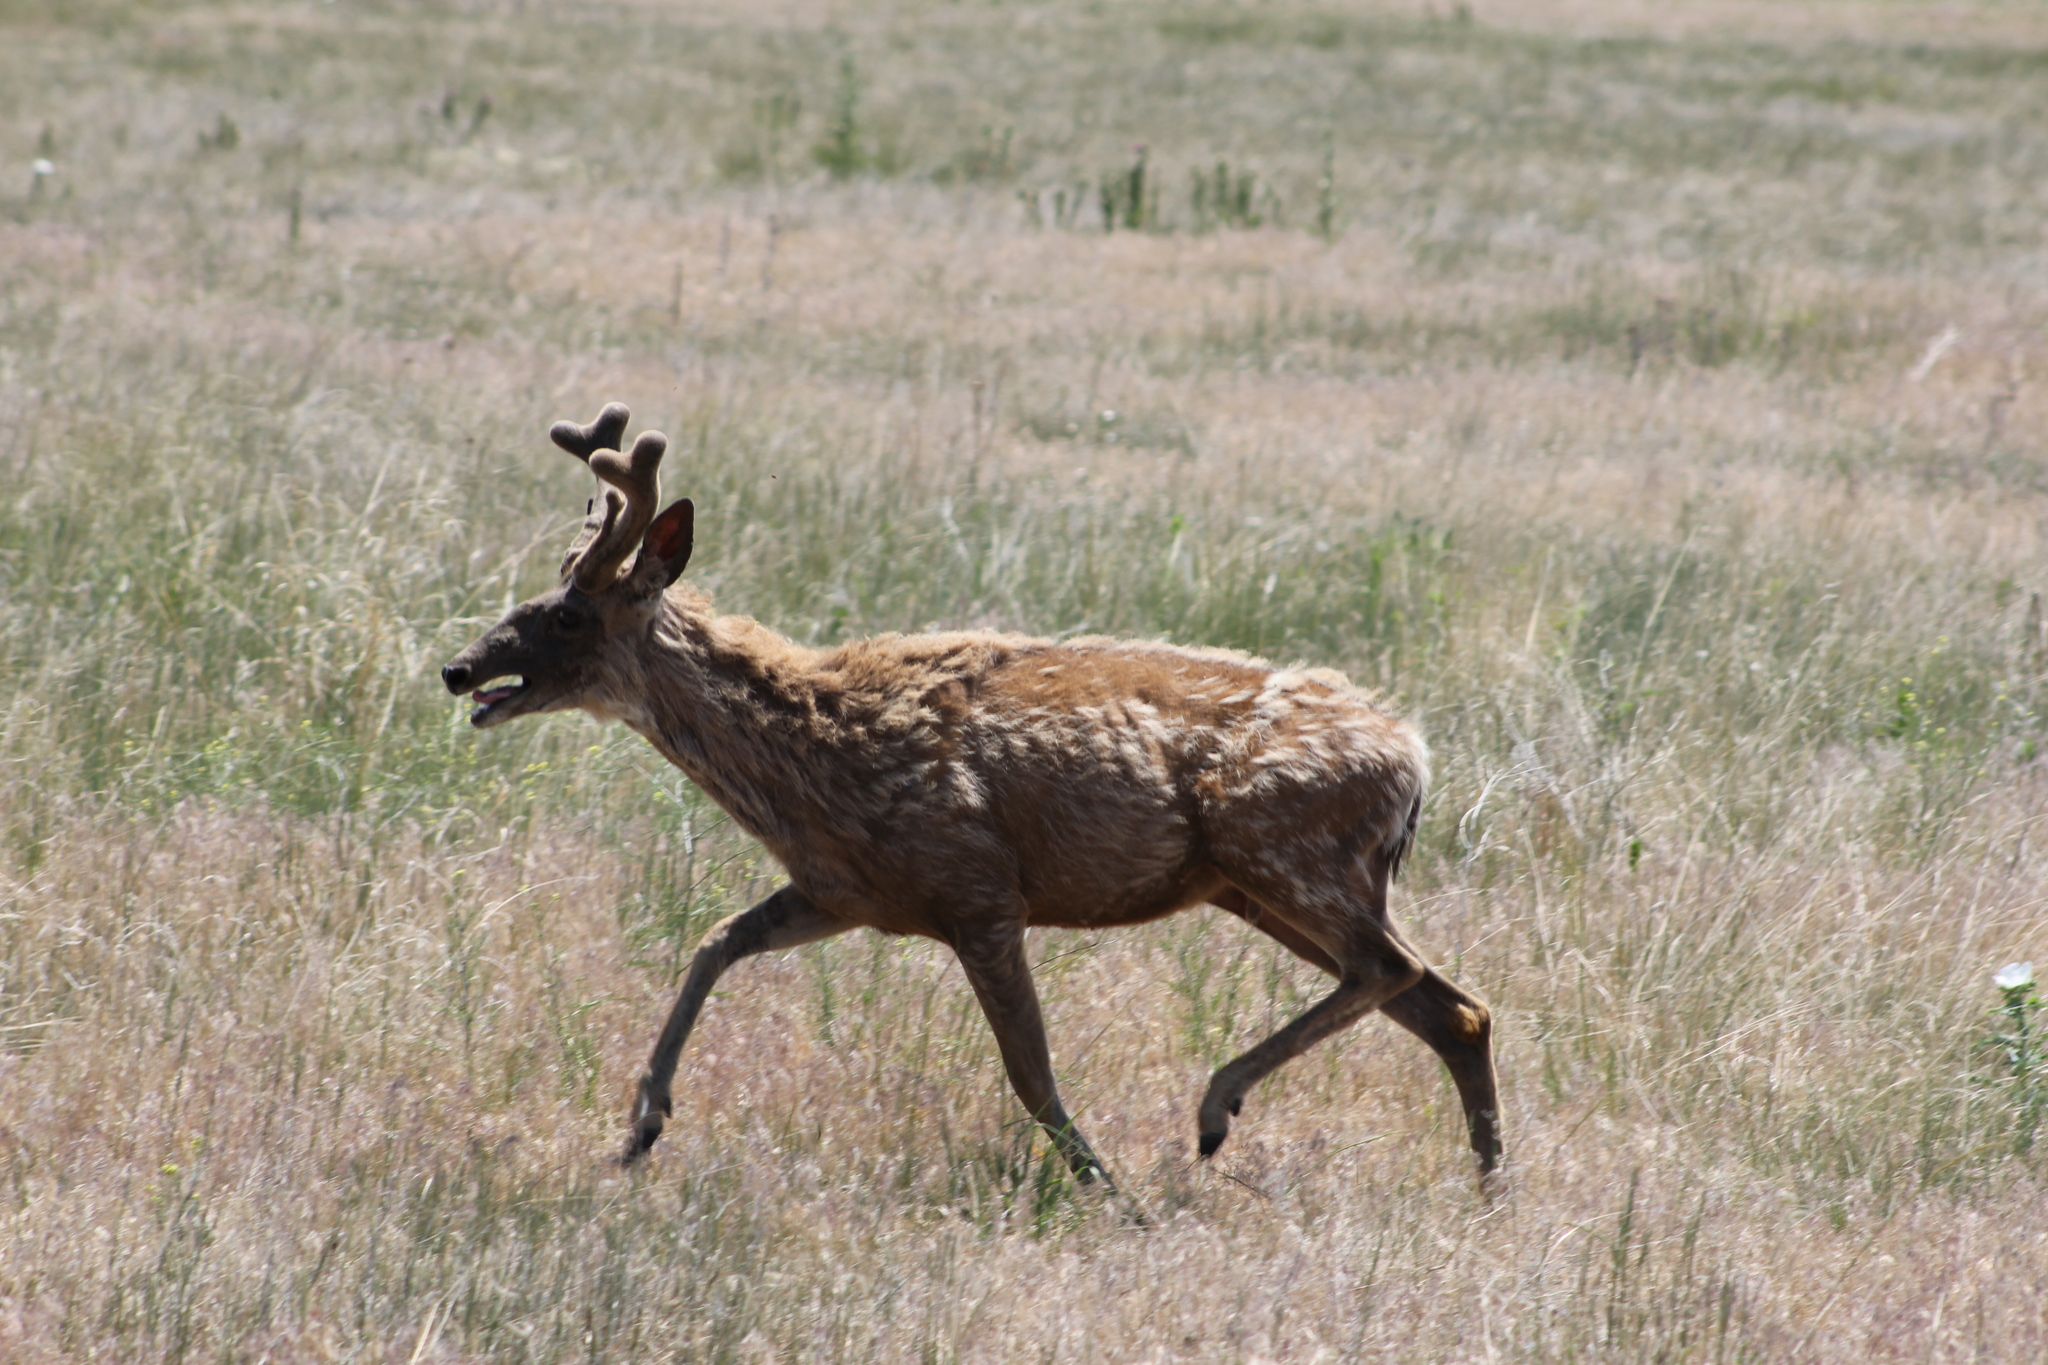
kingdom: Animalia
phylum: Chordata
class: Mammalia
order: Artiodactyla
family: Cervidae
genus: Odocoileus
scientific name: Odocoileus hemionus
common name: Mule deer
